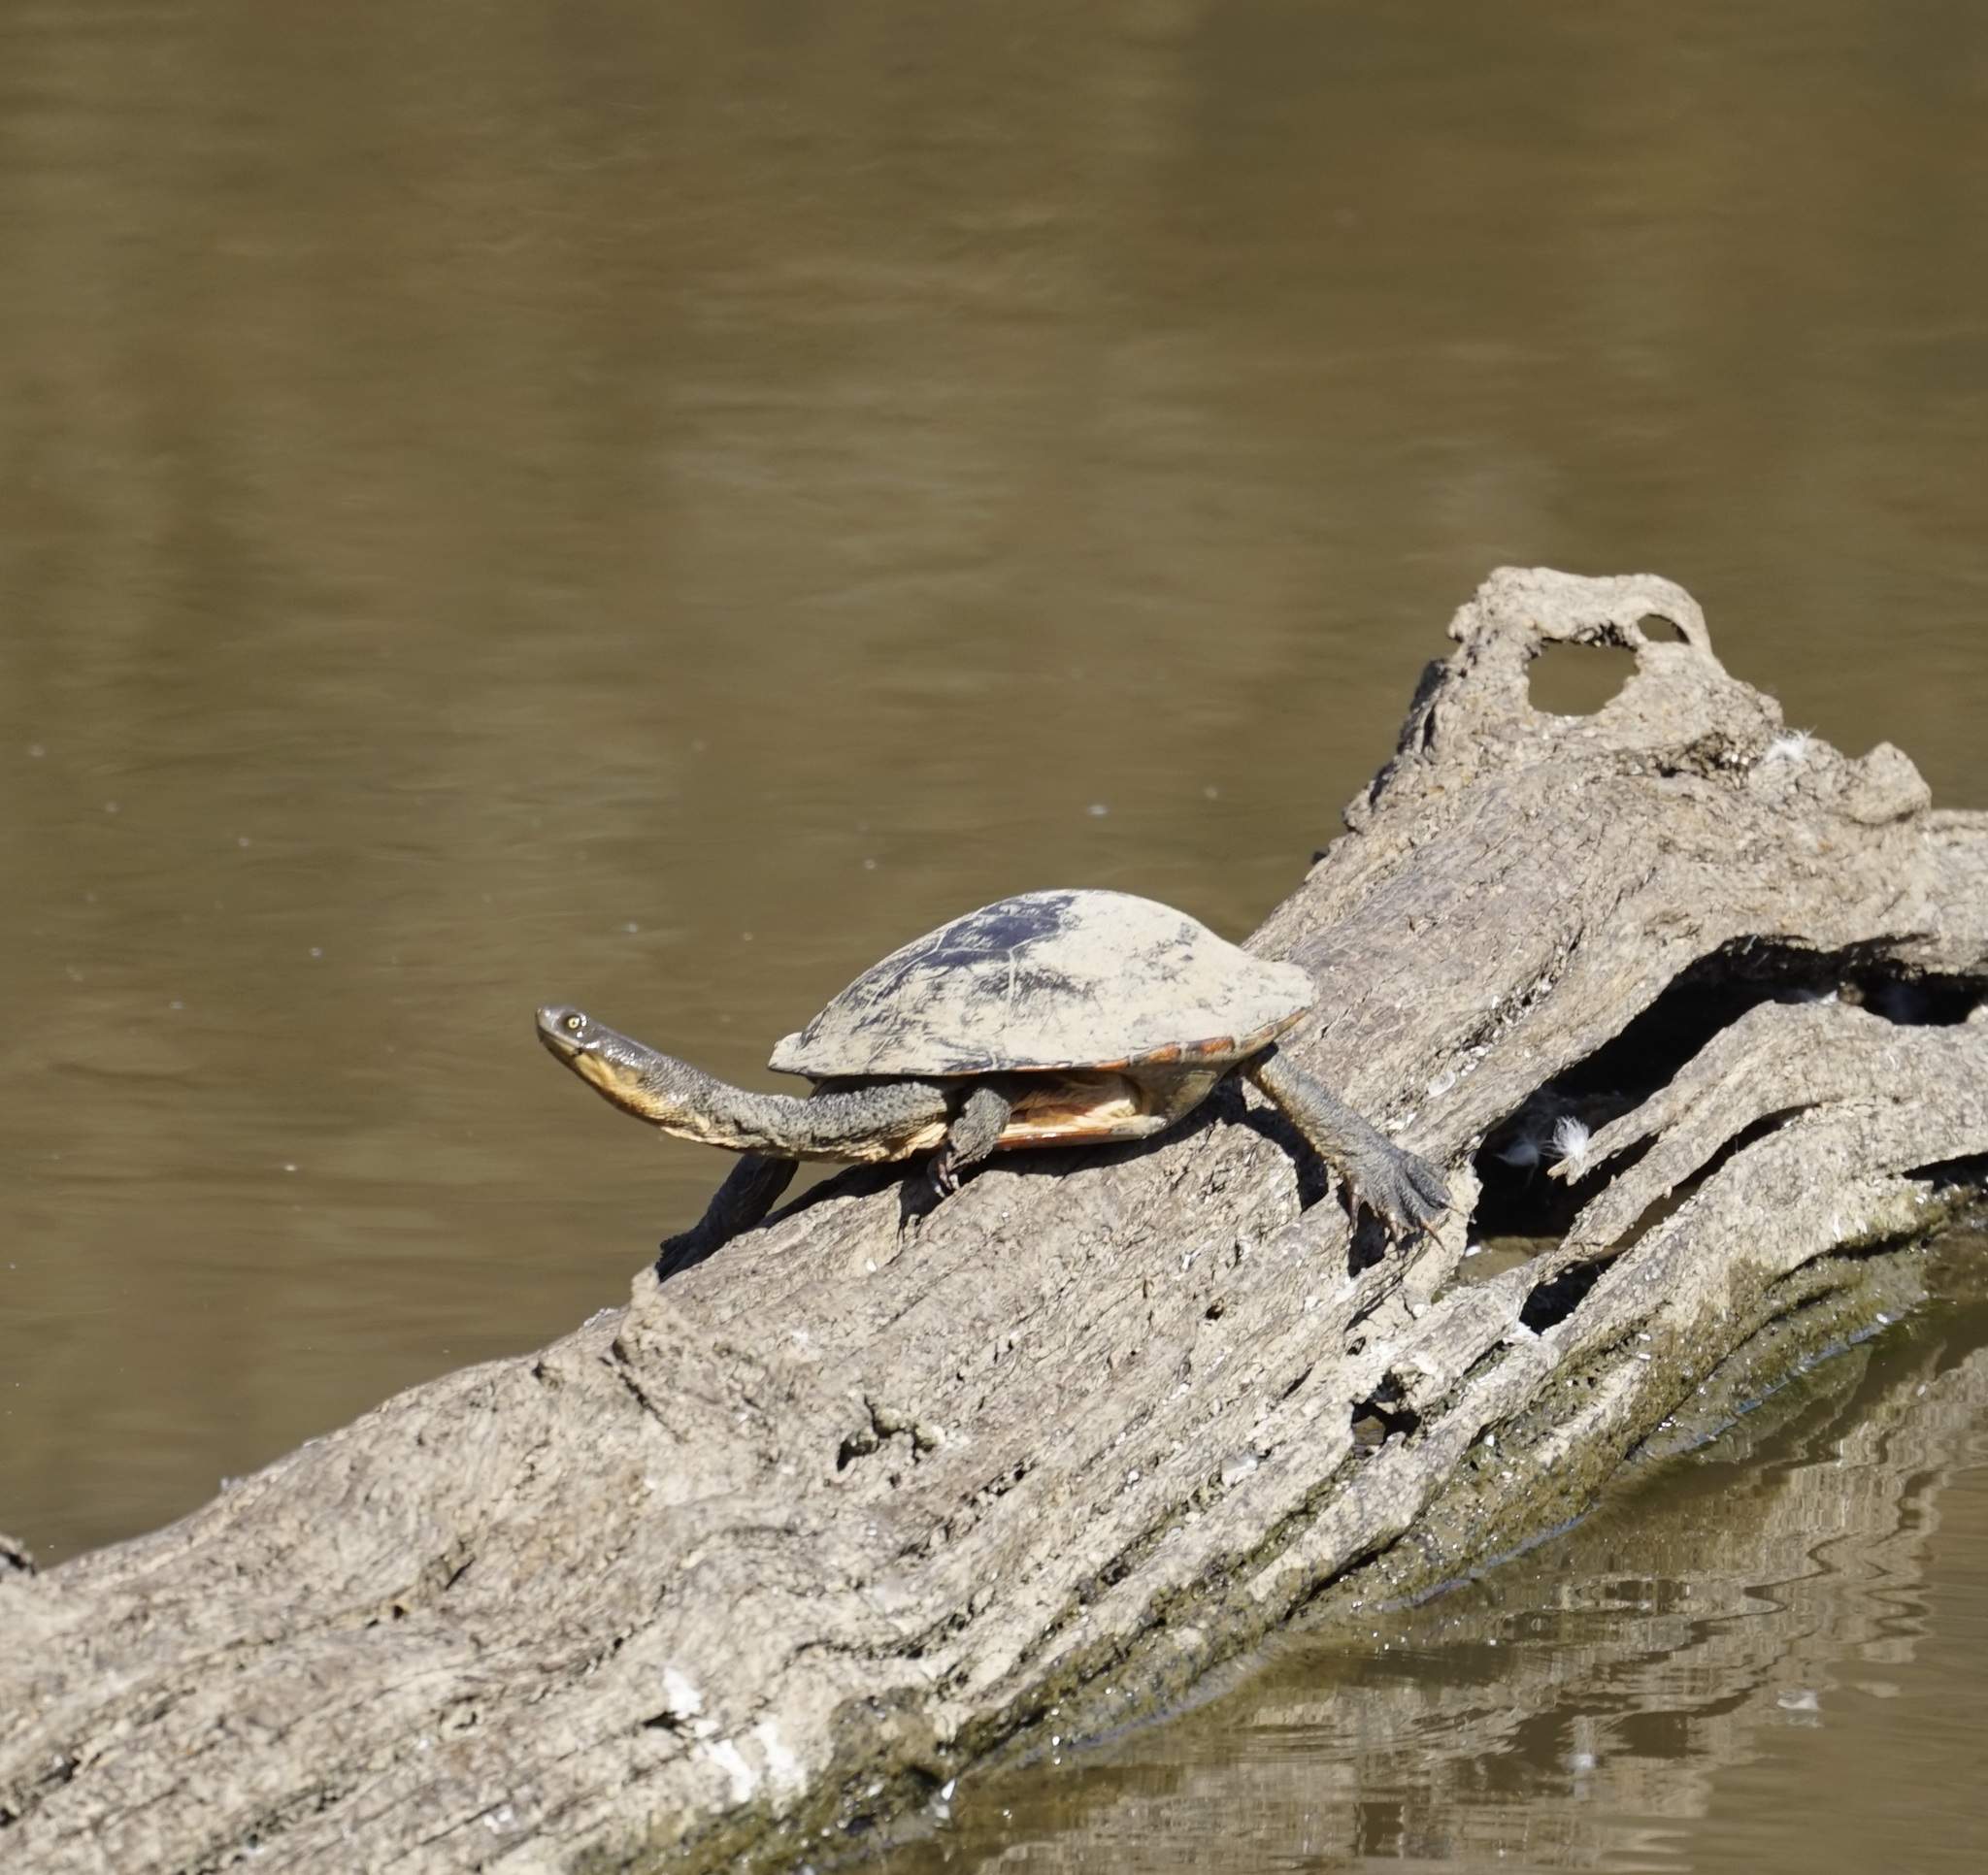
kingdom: Animalia
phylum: Chordata
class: Testudines
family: Chelidae
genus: Chelodina
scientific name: Chelodina longicollis
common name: Eastern snake-necked turtle
